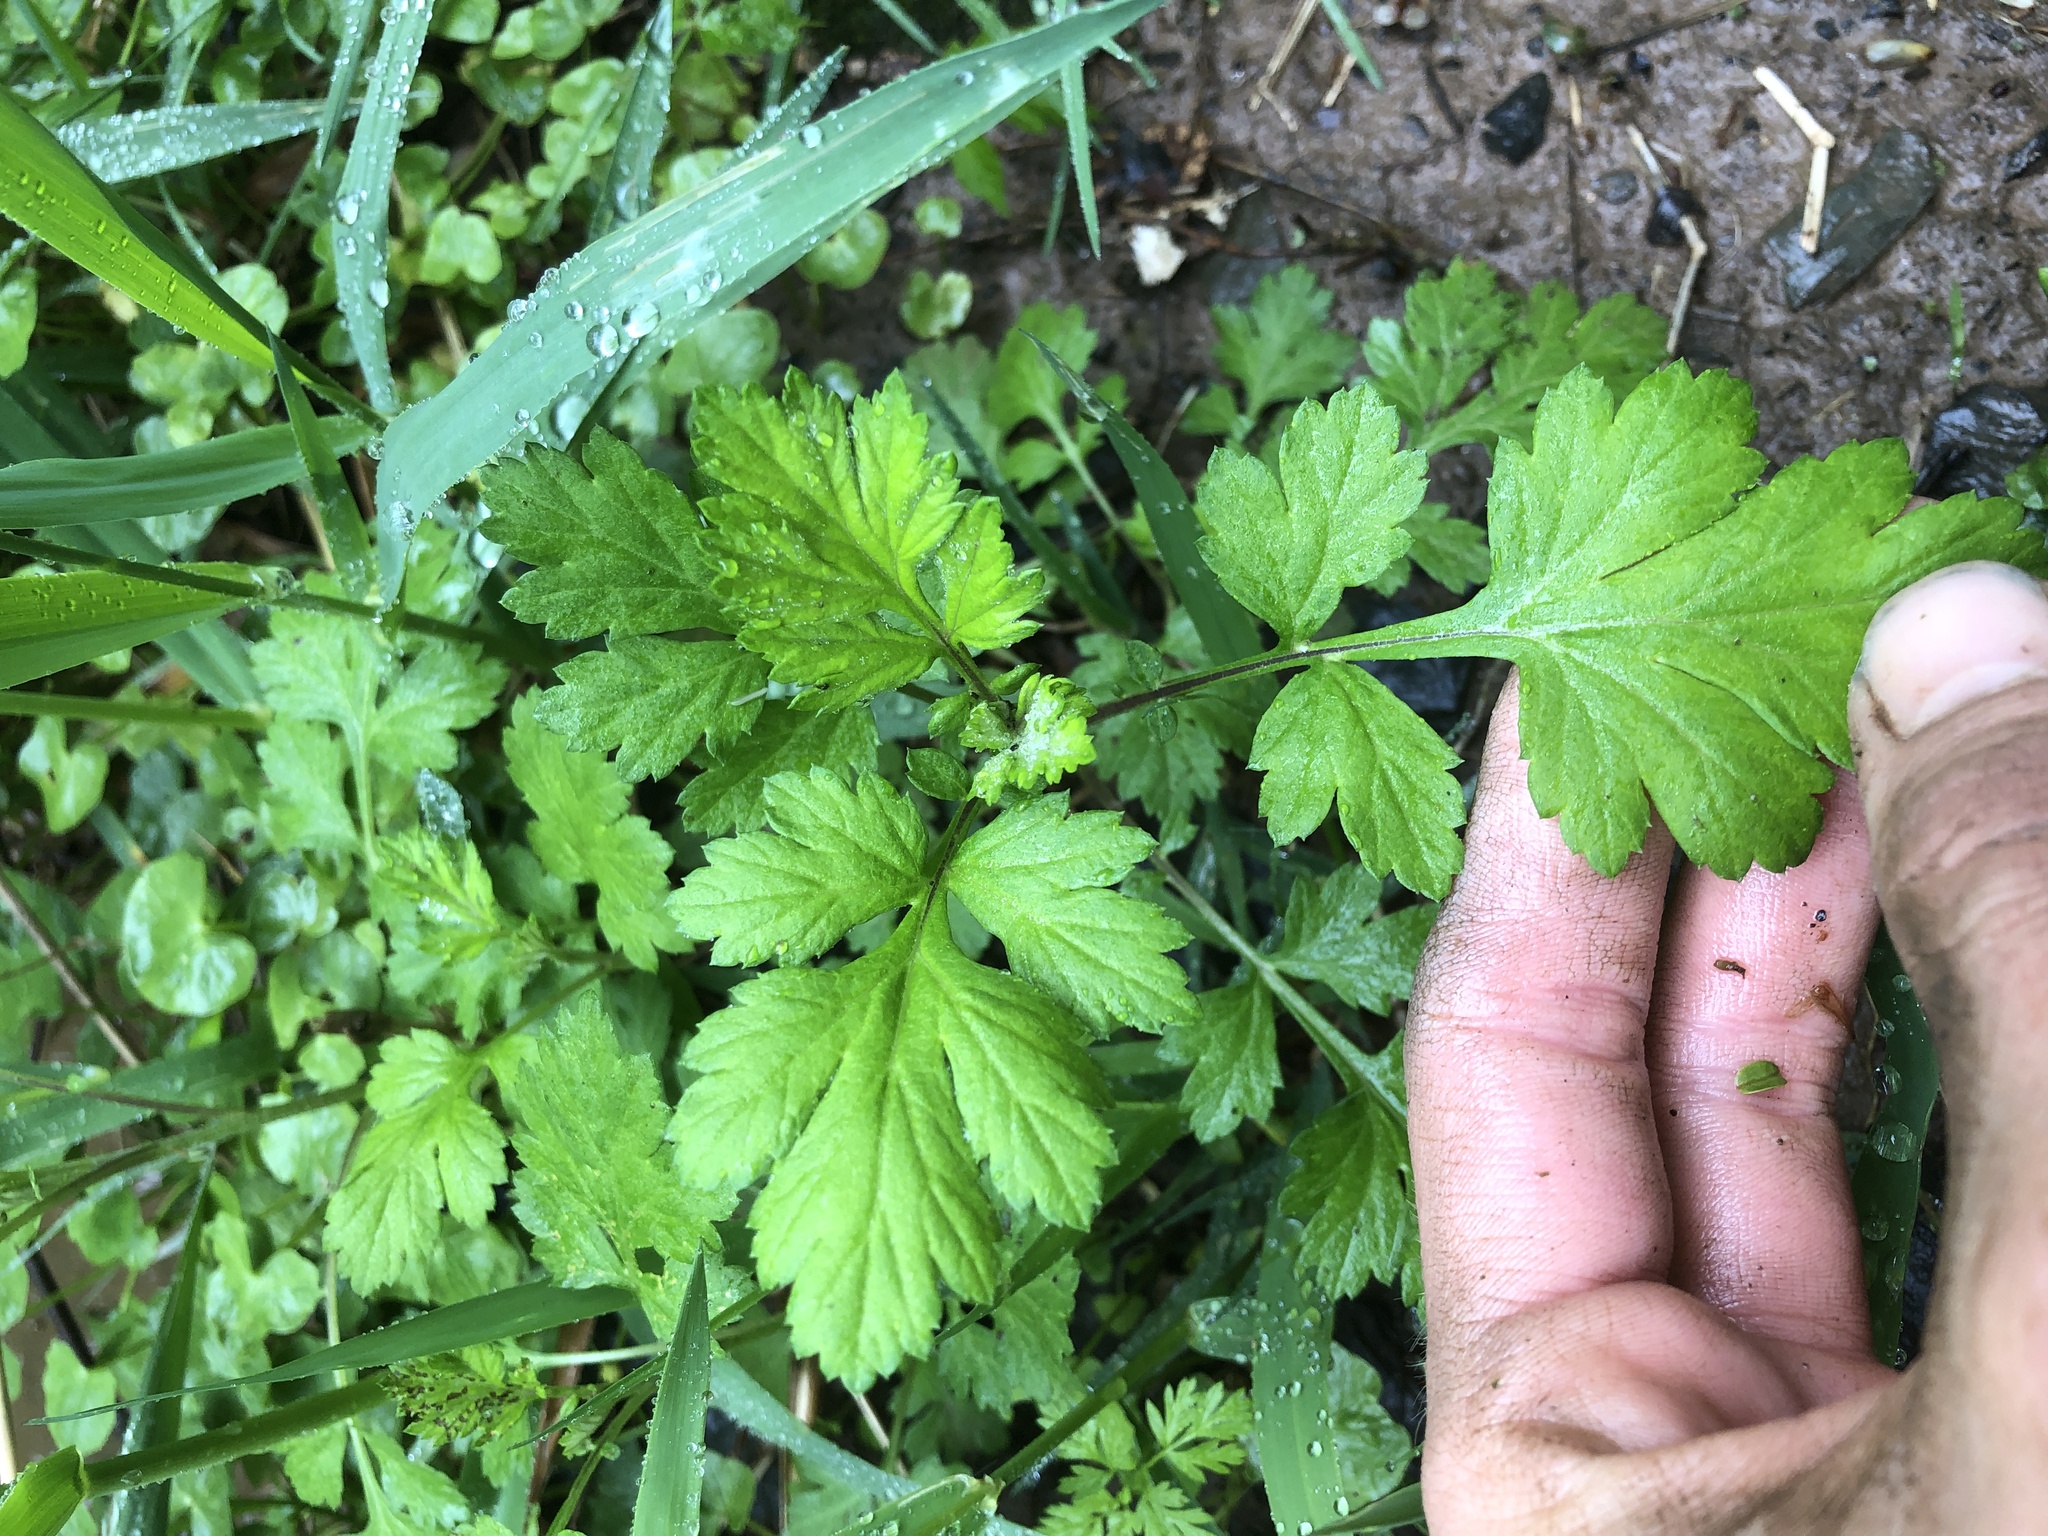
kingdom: Plantae
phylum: Tracheophyta
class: Magnoliopsida
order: Asterales
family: Asteraceae
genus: Artemisia
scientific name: Artemisia vulgaris
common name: Mugwort
